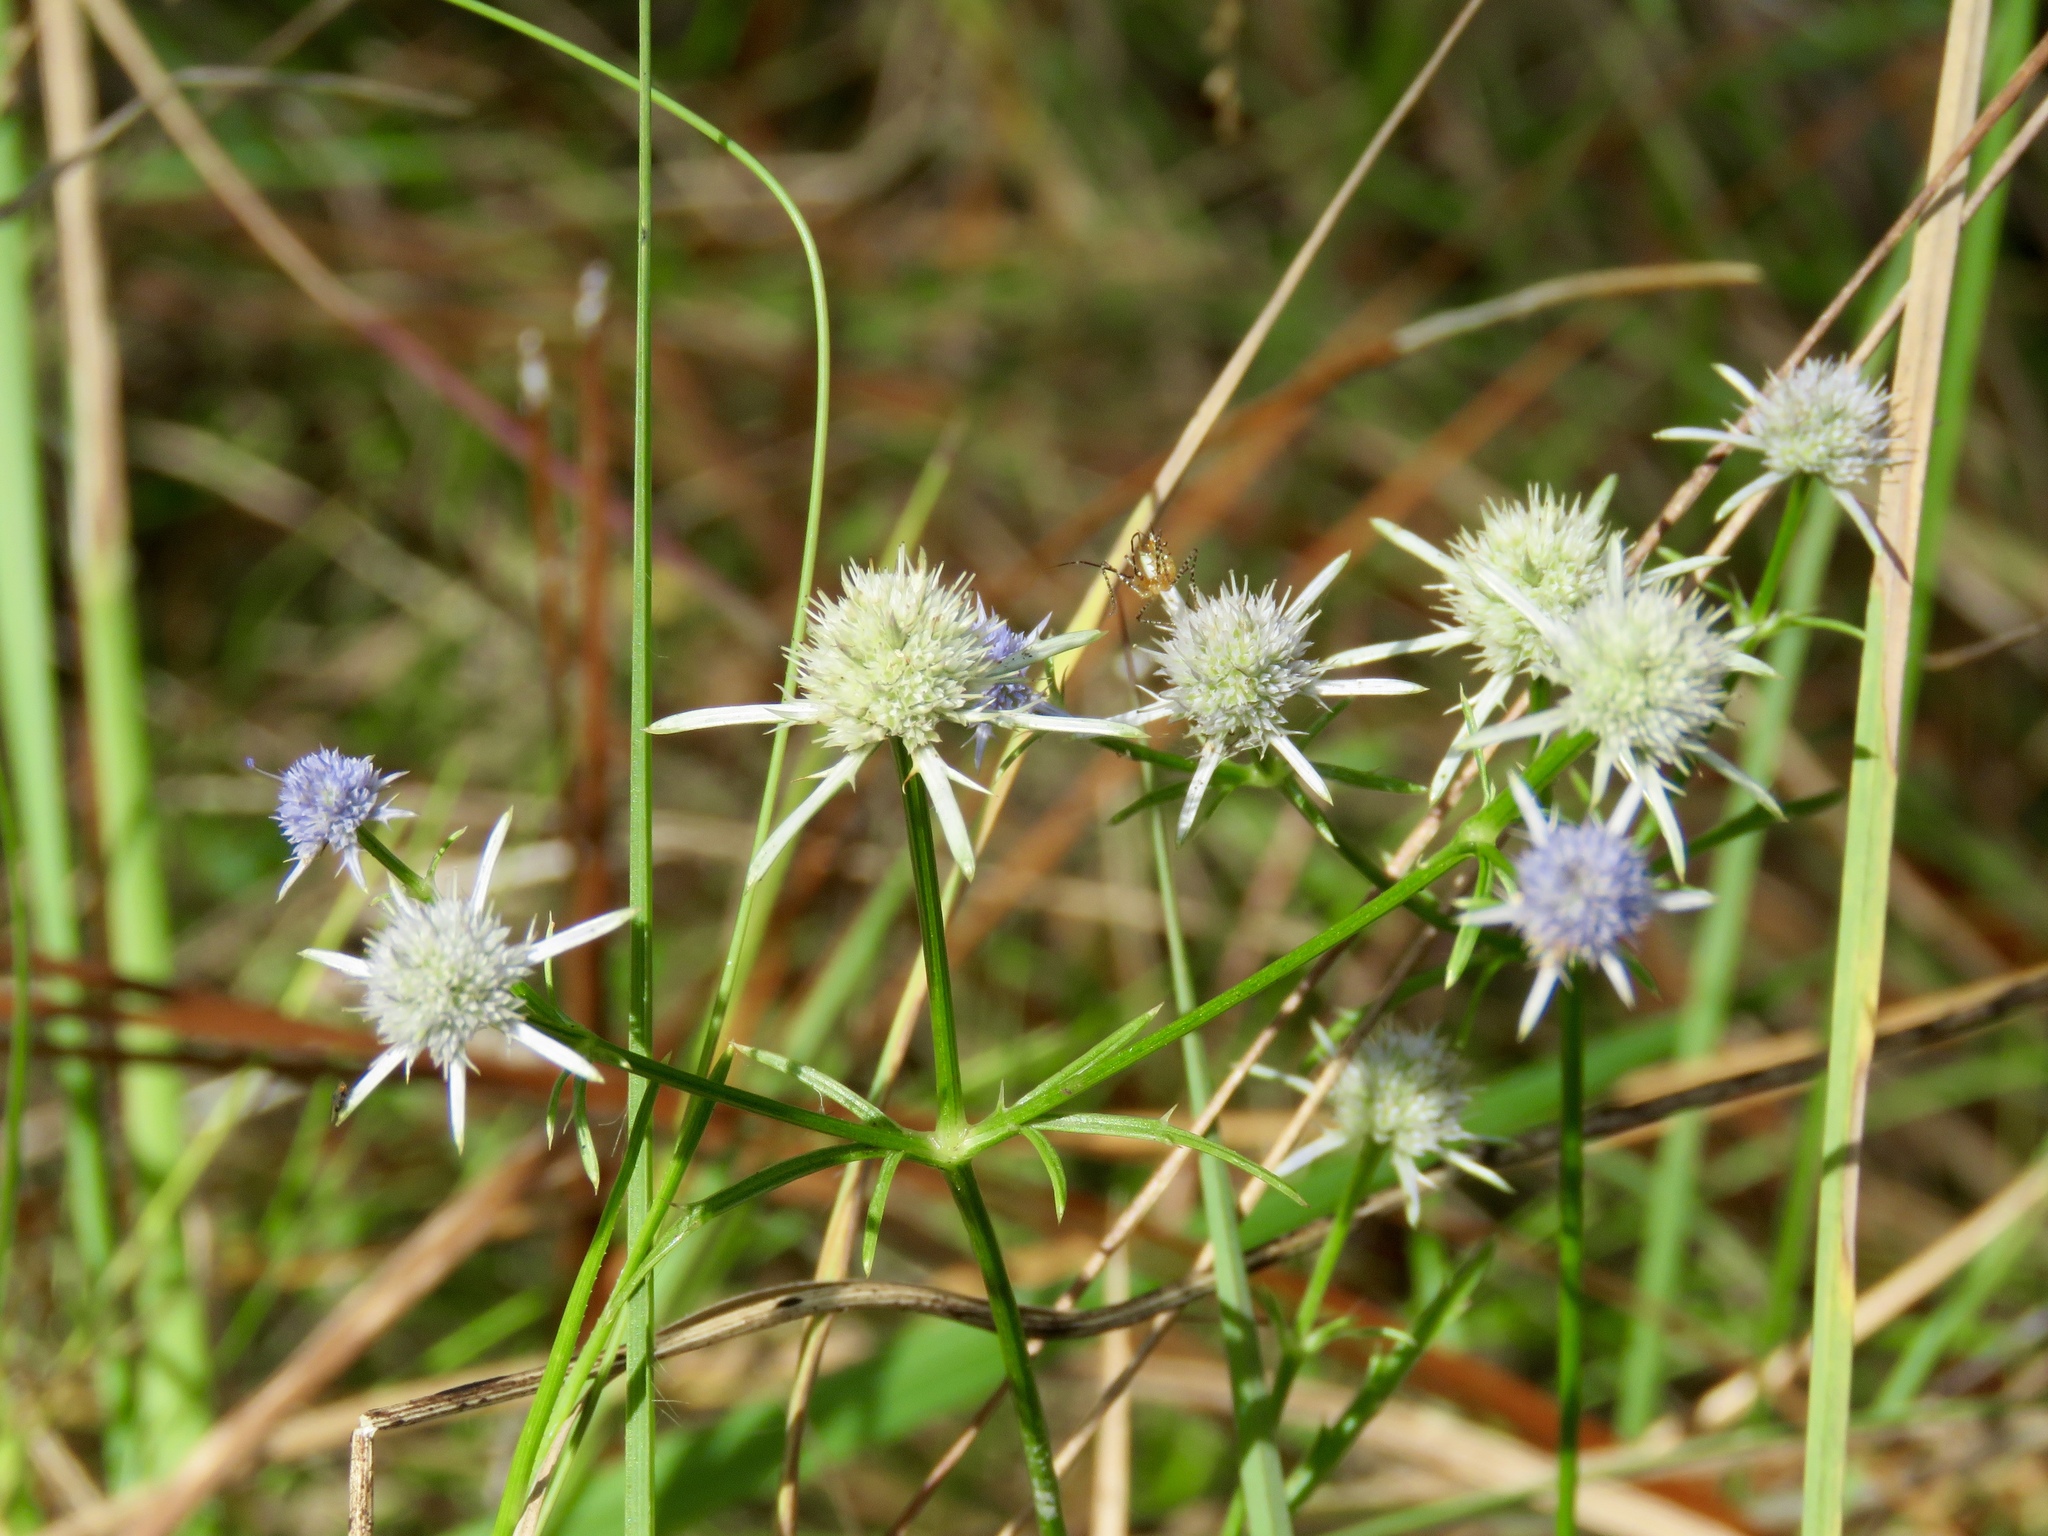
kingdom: Plantae
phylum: Tracheophyta
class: Magnoliopsida
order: Apiales
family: Apiaceae
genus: Eryngium
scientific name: Eryngium integrifolium
